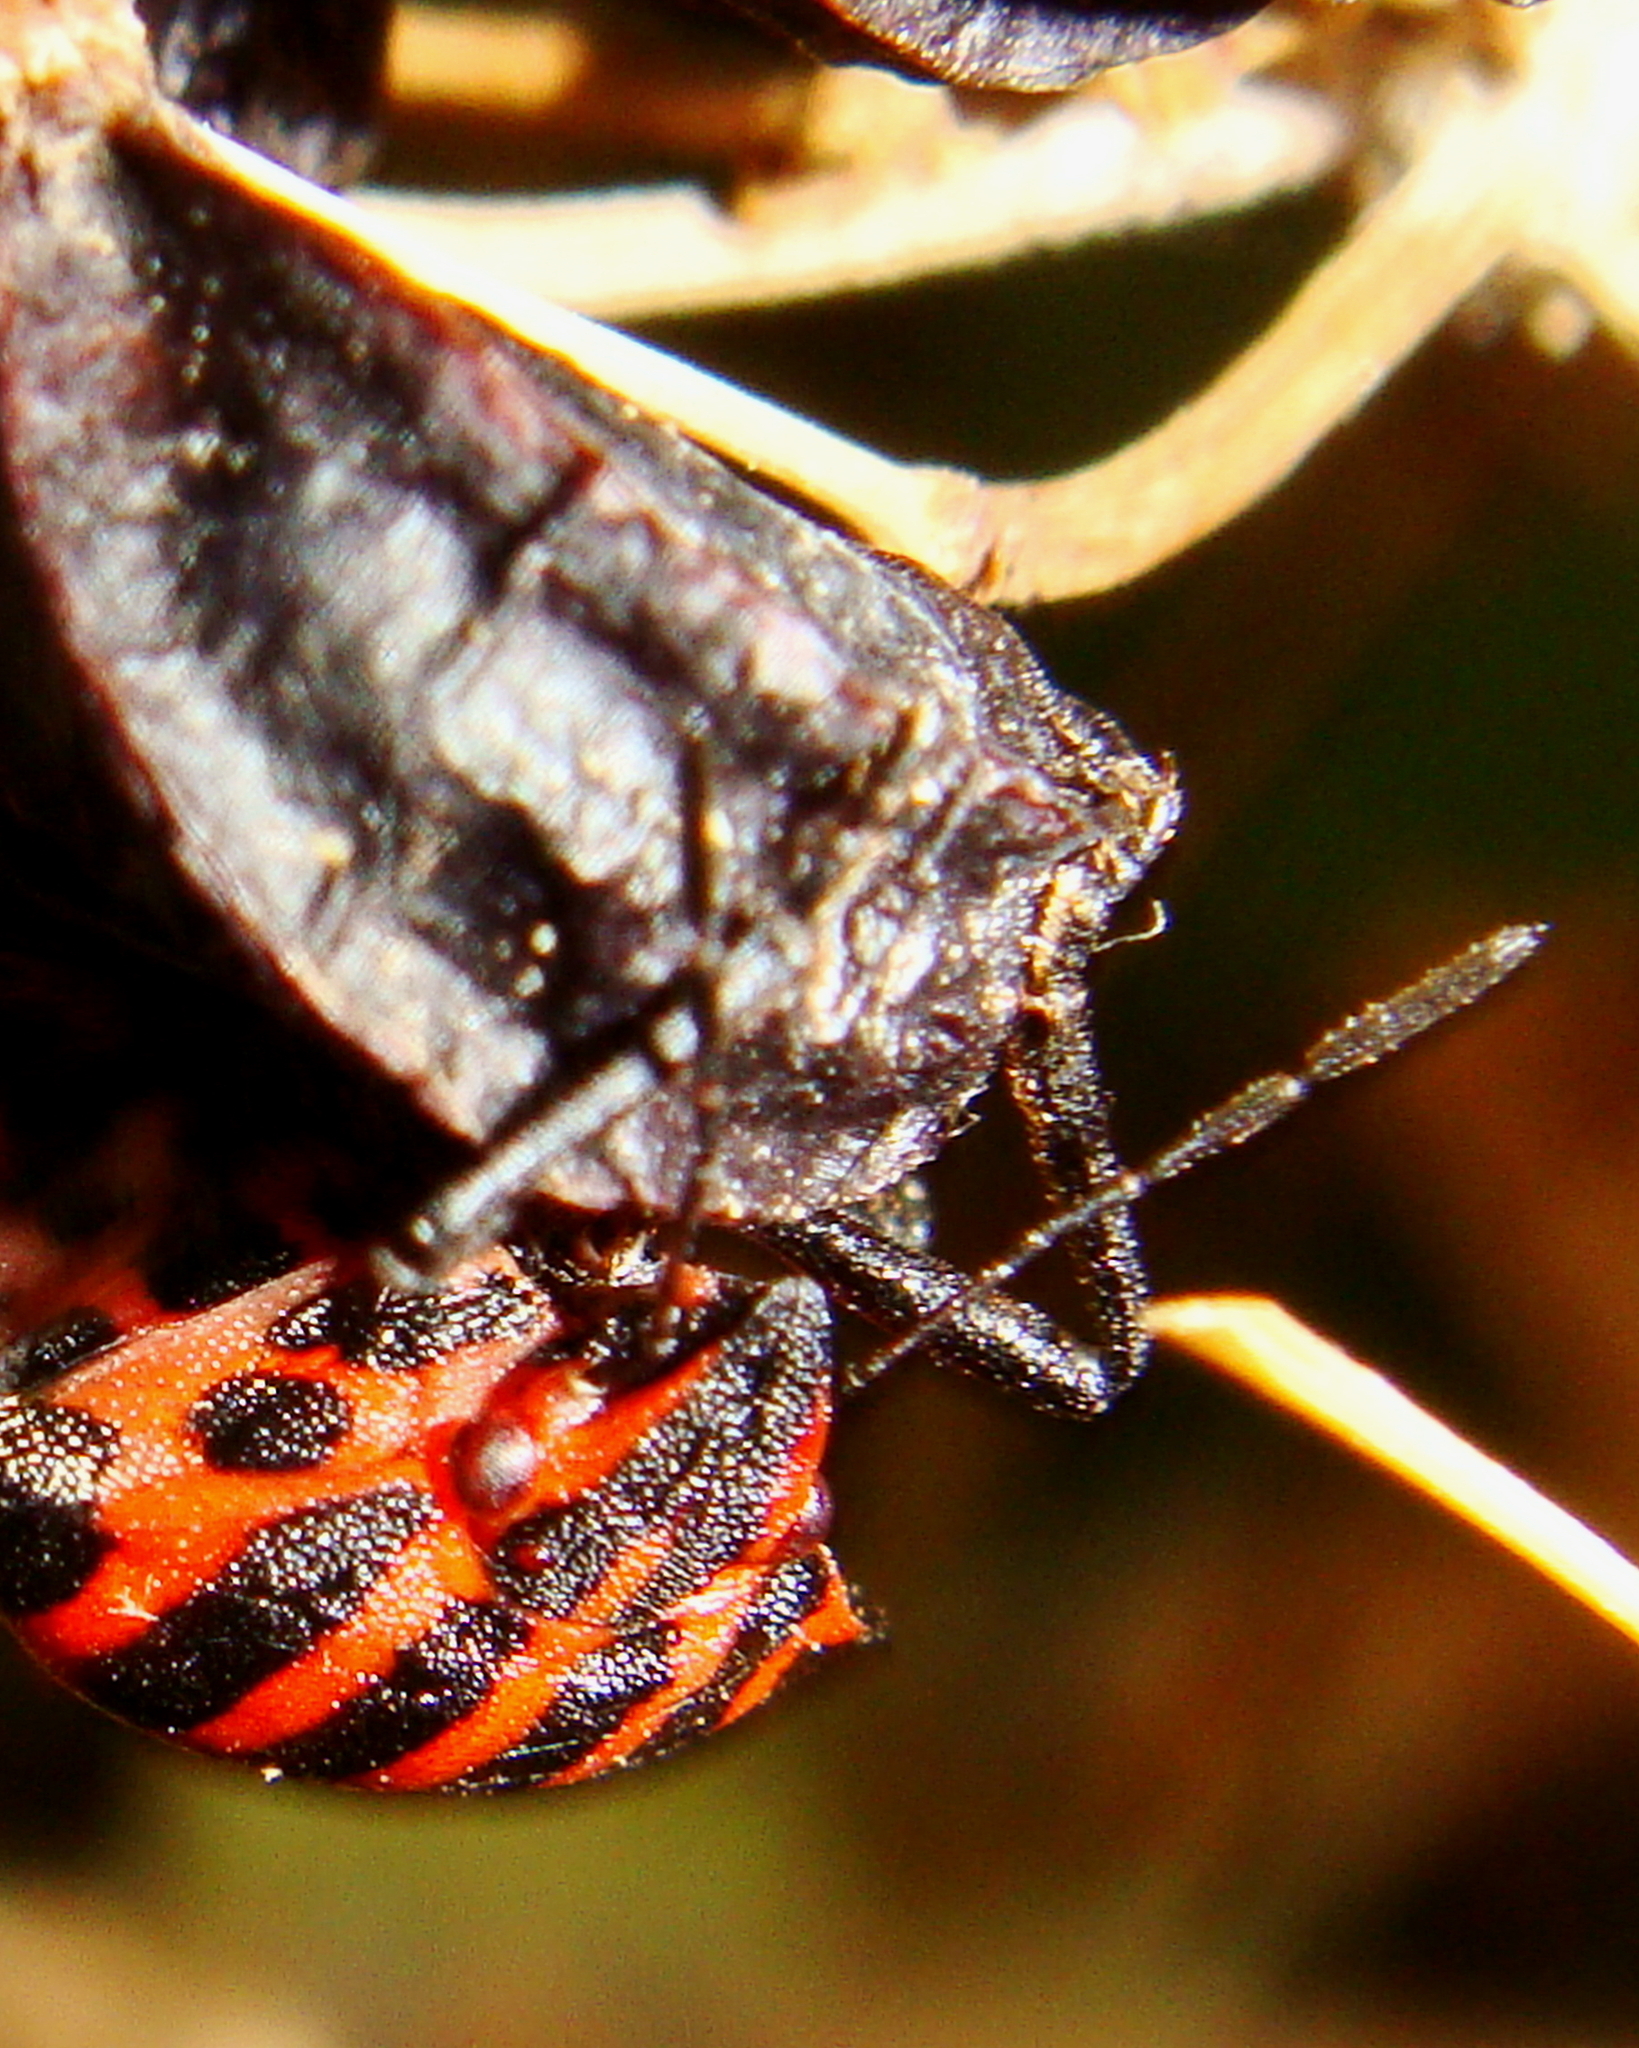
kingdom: Animalia
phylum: Arthropoda
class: Insecta
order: Hemiptera
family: Pentatomidae
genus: Graphosoma
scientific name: Graphosoma italicum
